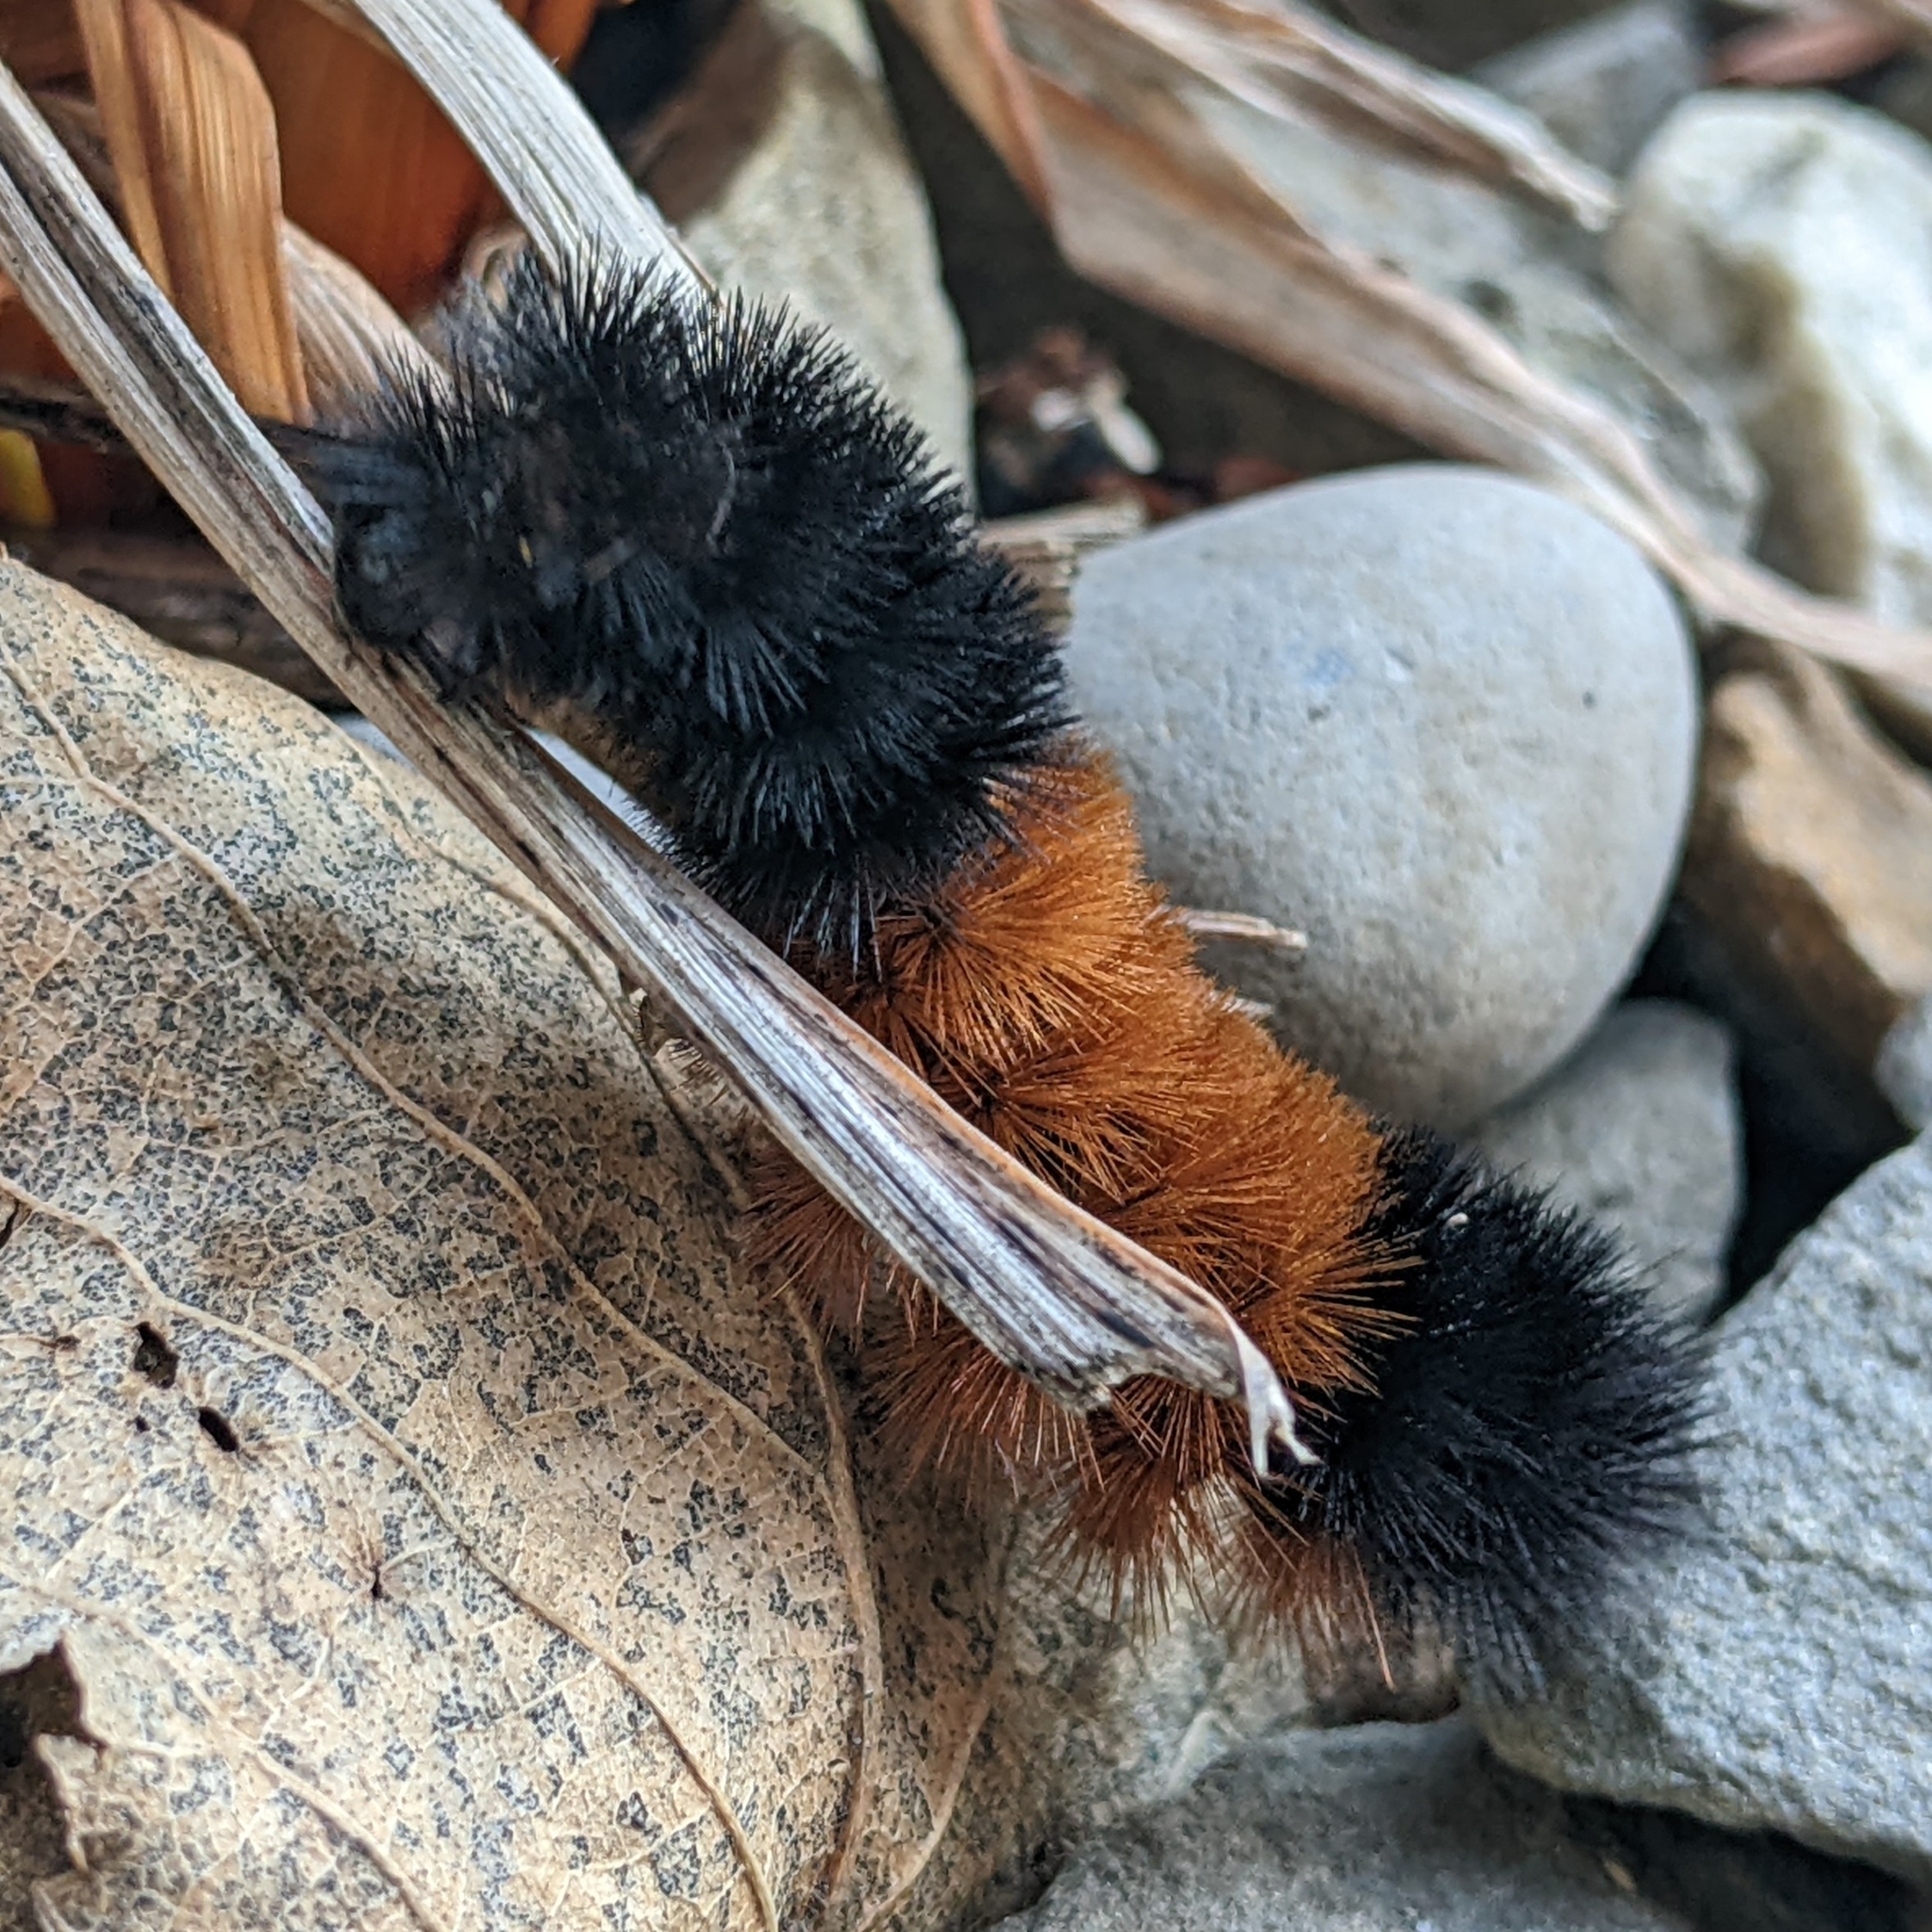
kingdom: Animalia
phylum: Arthropoda
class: Insecta
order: Lepidoptera
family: Erebidae
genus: Pyrrharctia
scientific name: Pyrrharctia isabella
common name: Isabella tiger moth
